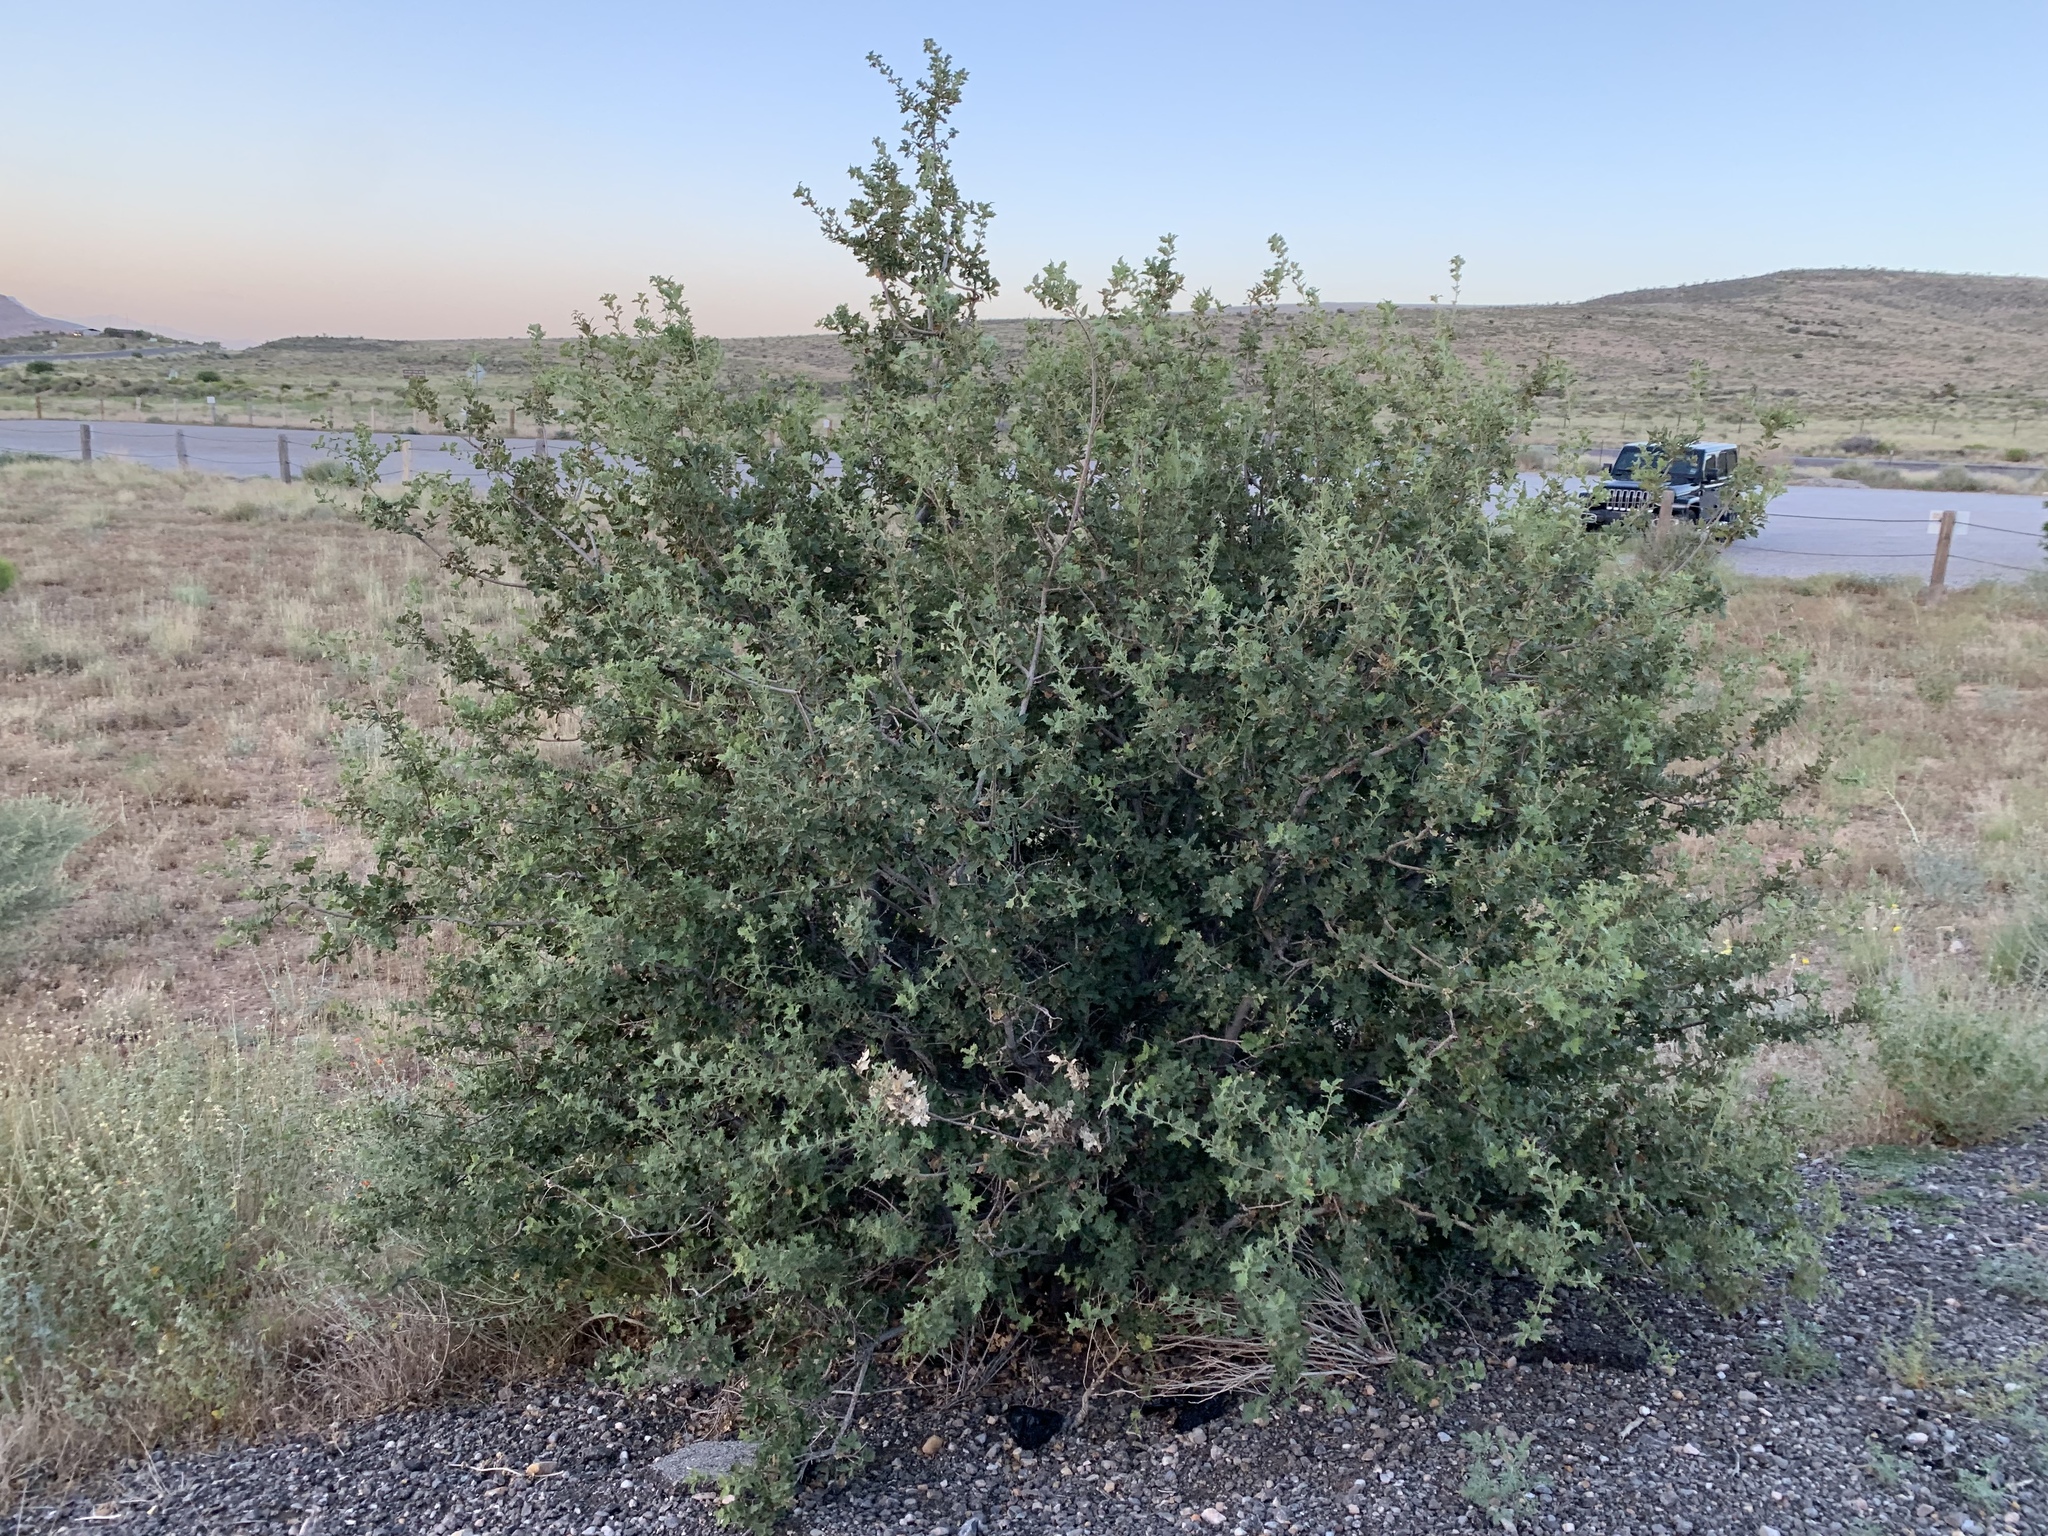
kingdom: Plantae
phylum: Tracheophyta
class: Magnoliopsida
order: Fagales
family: Fagaceae
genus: Quercus
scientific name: Quercus turbinella
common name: Sonoran scrub oak
